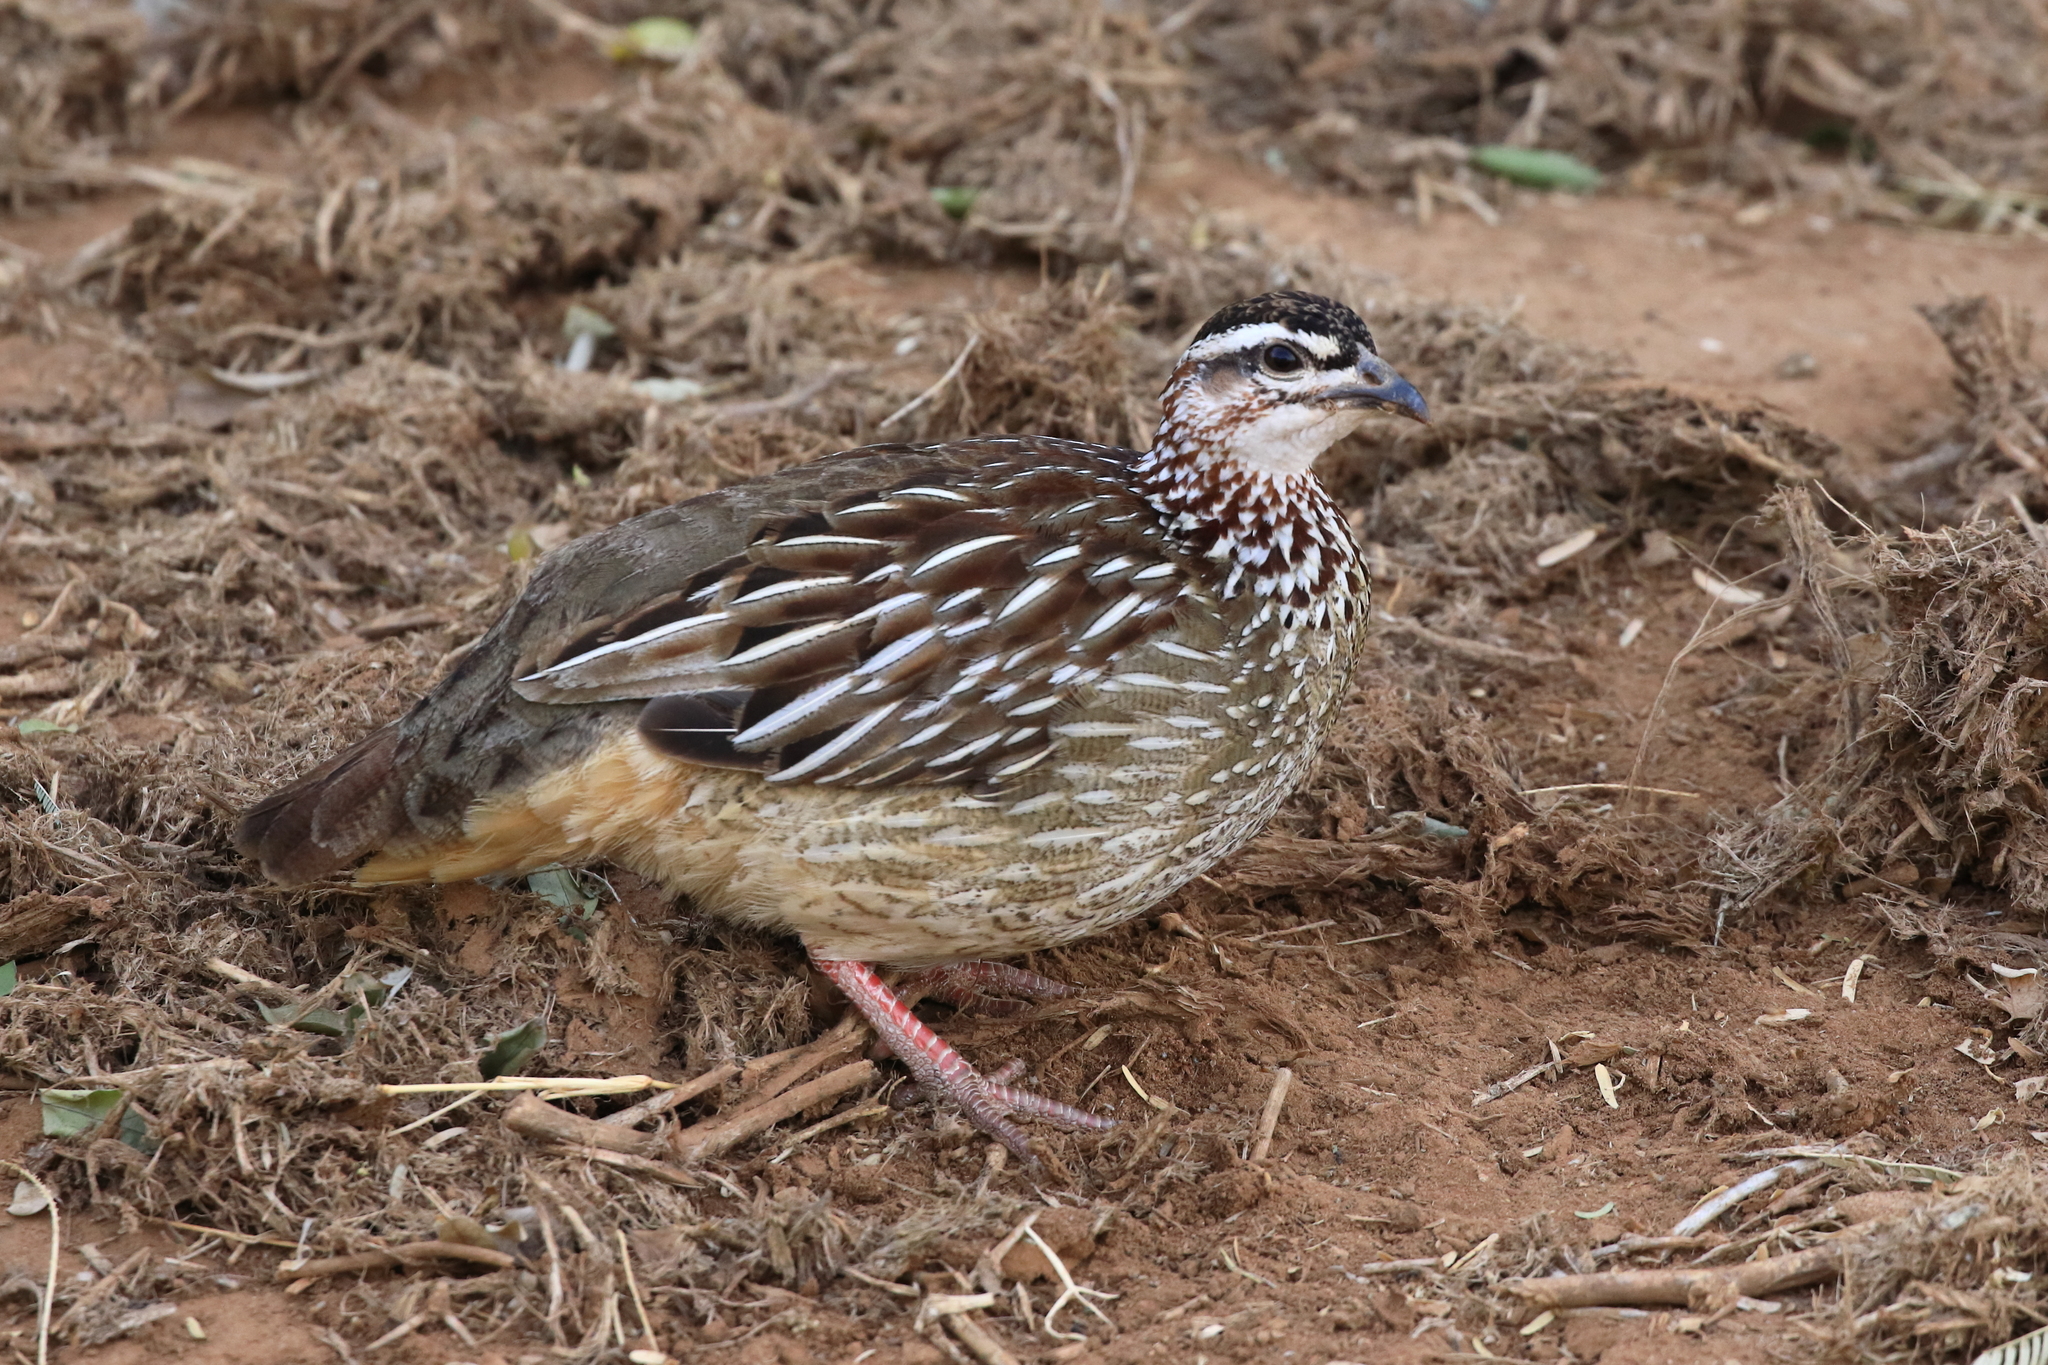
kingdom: Animalia
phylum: Chordata
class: Aves
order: Galliformes
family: Phasianidae
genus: Ortygornis
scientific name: Ortygornis sephaena
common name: Crested francolin
